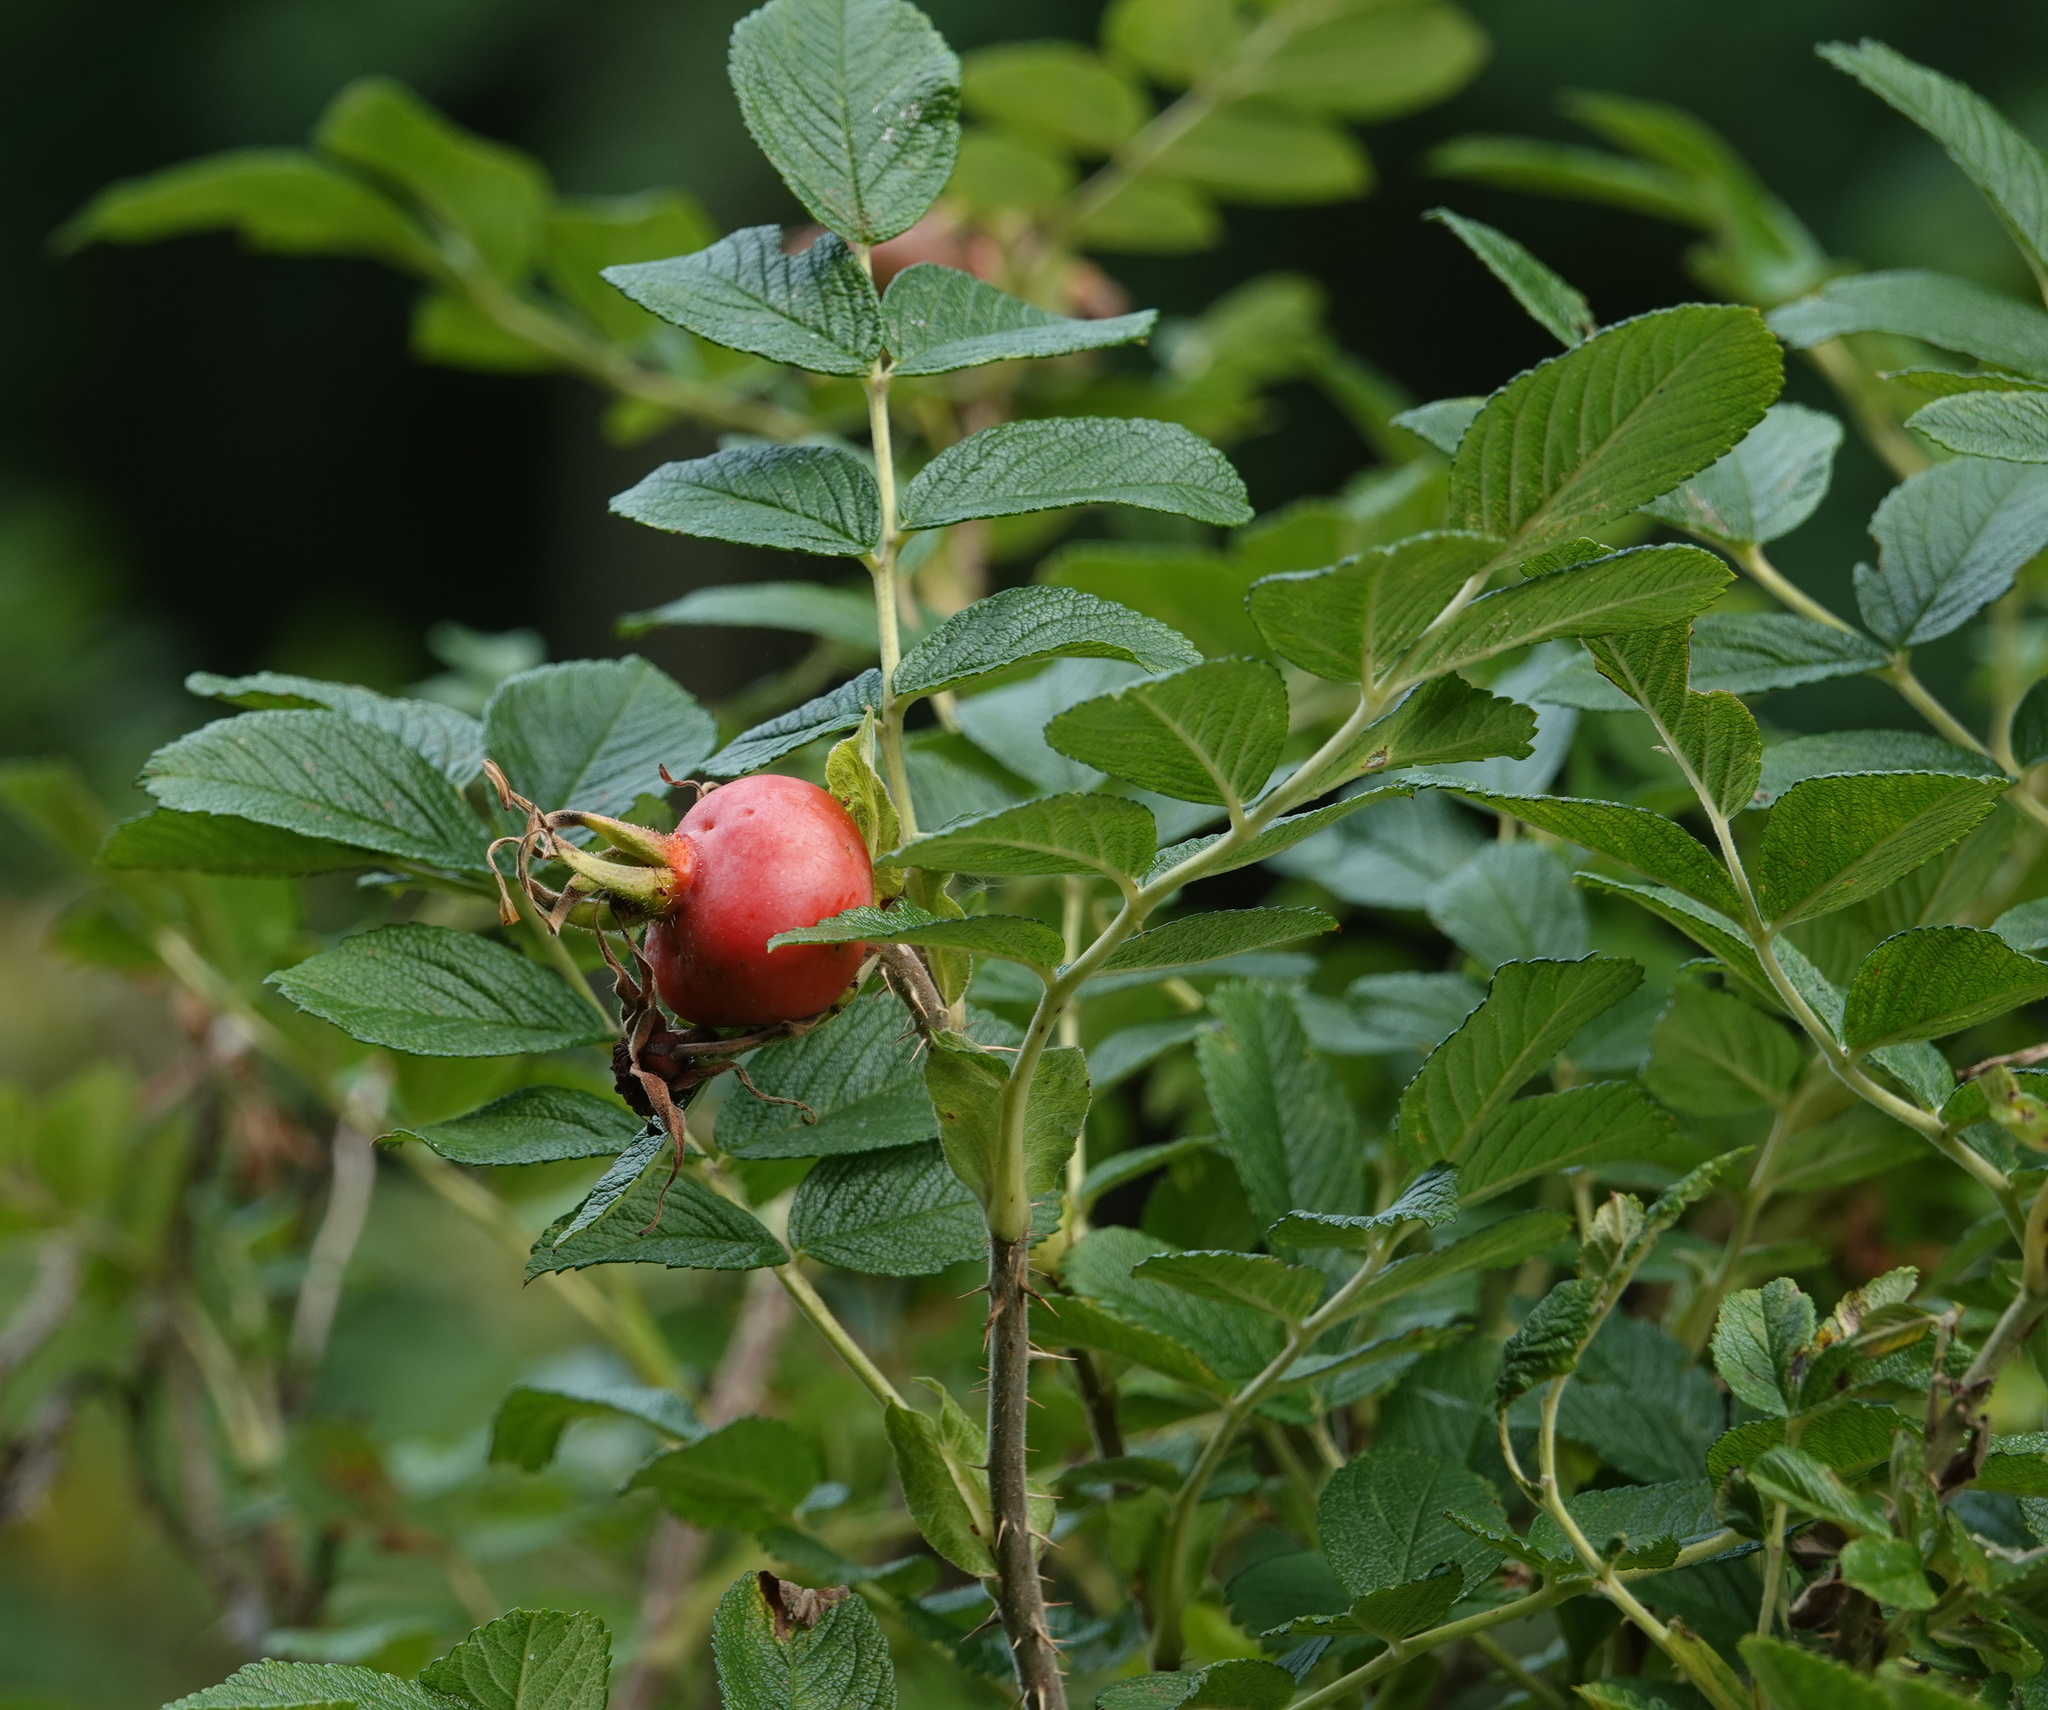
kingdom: Plantae
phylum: Tracheophyta
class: Magnoliopsida
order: Rosales
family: Rosaceae
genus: Rosa
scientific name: Rosa rugosa
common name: Japanese rose
